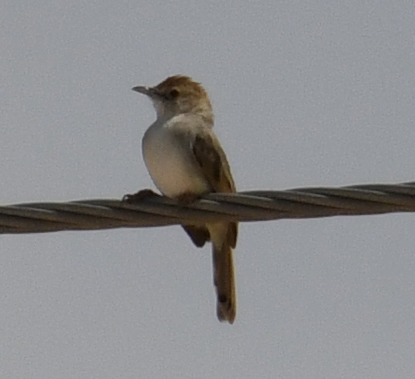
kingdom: Animalia
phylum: Chordata
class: Aves
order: Passeriformes
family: Cisticolidae
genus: Cisticola
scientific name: Cisticola chiniana
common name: Rattling cisticola
